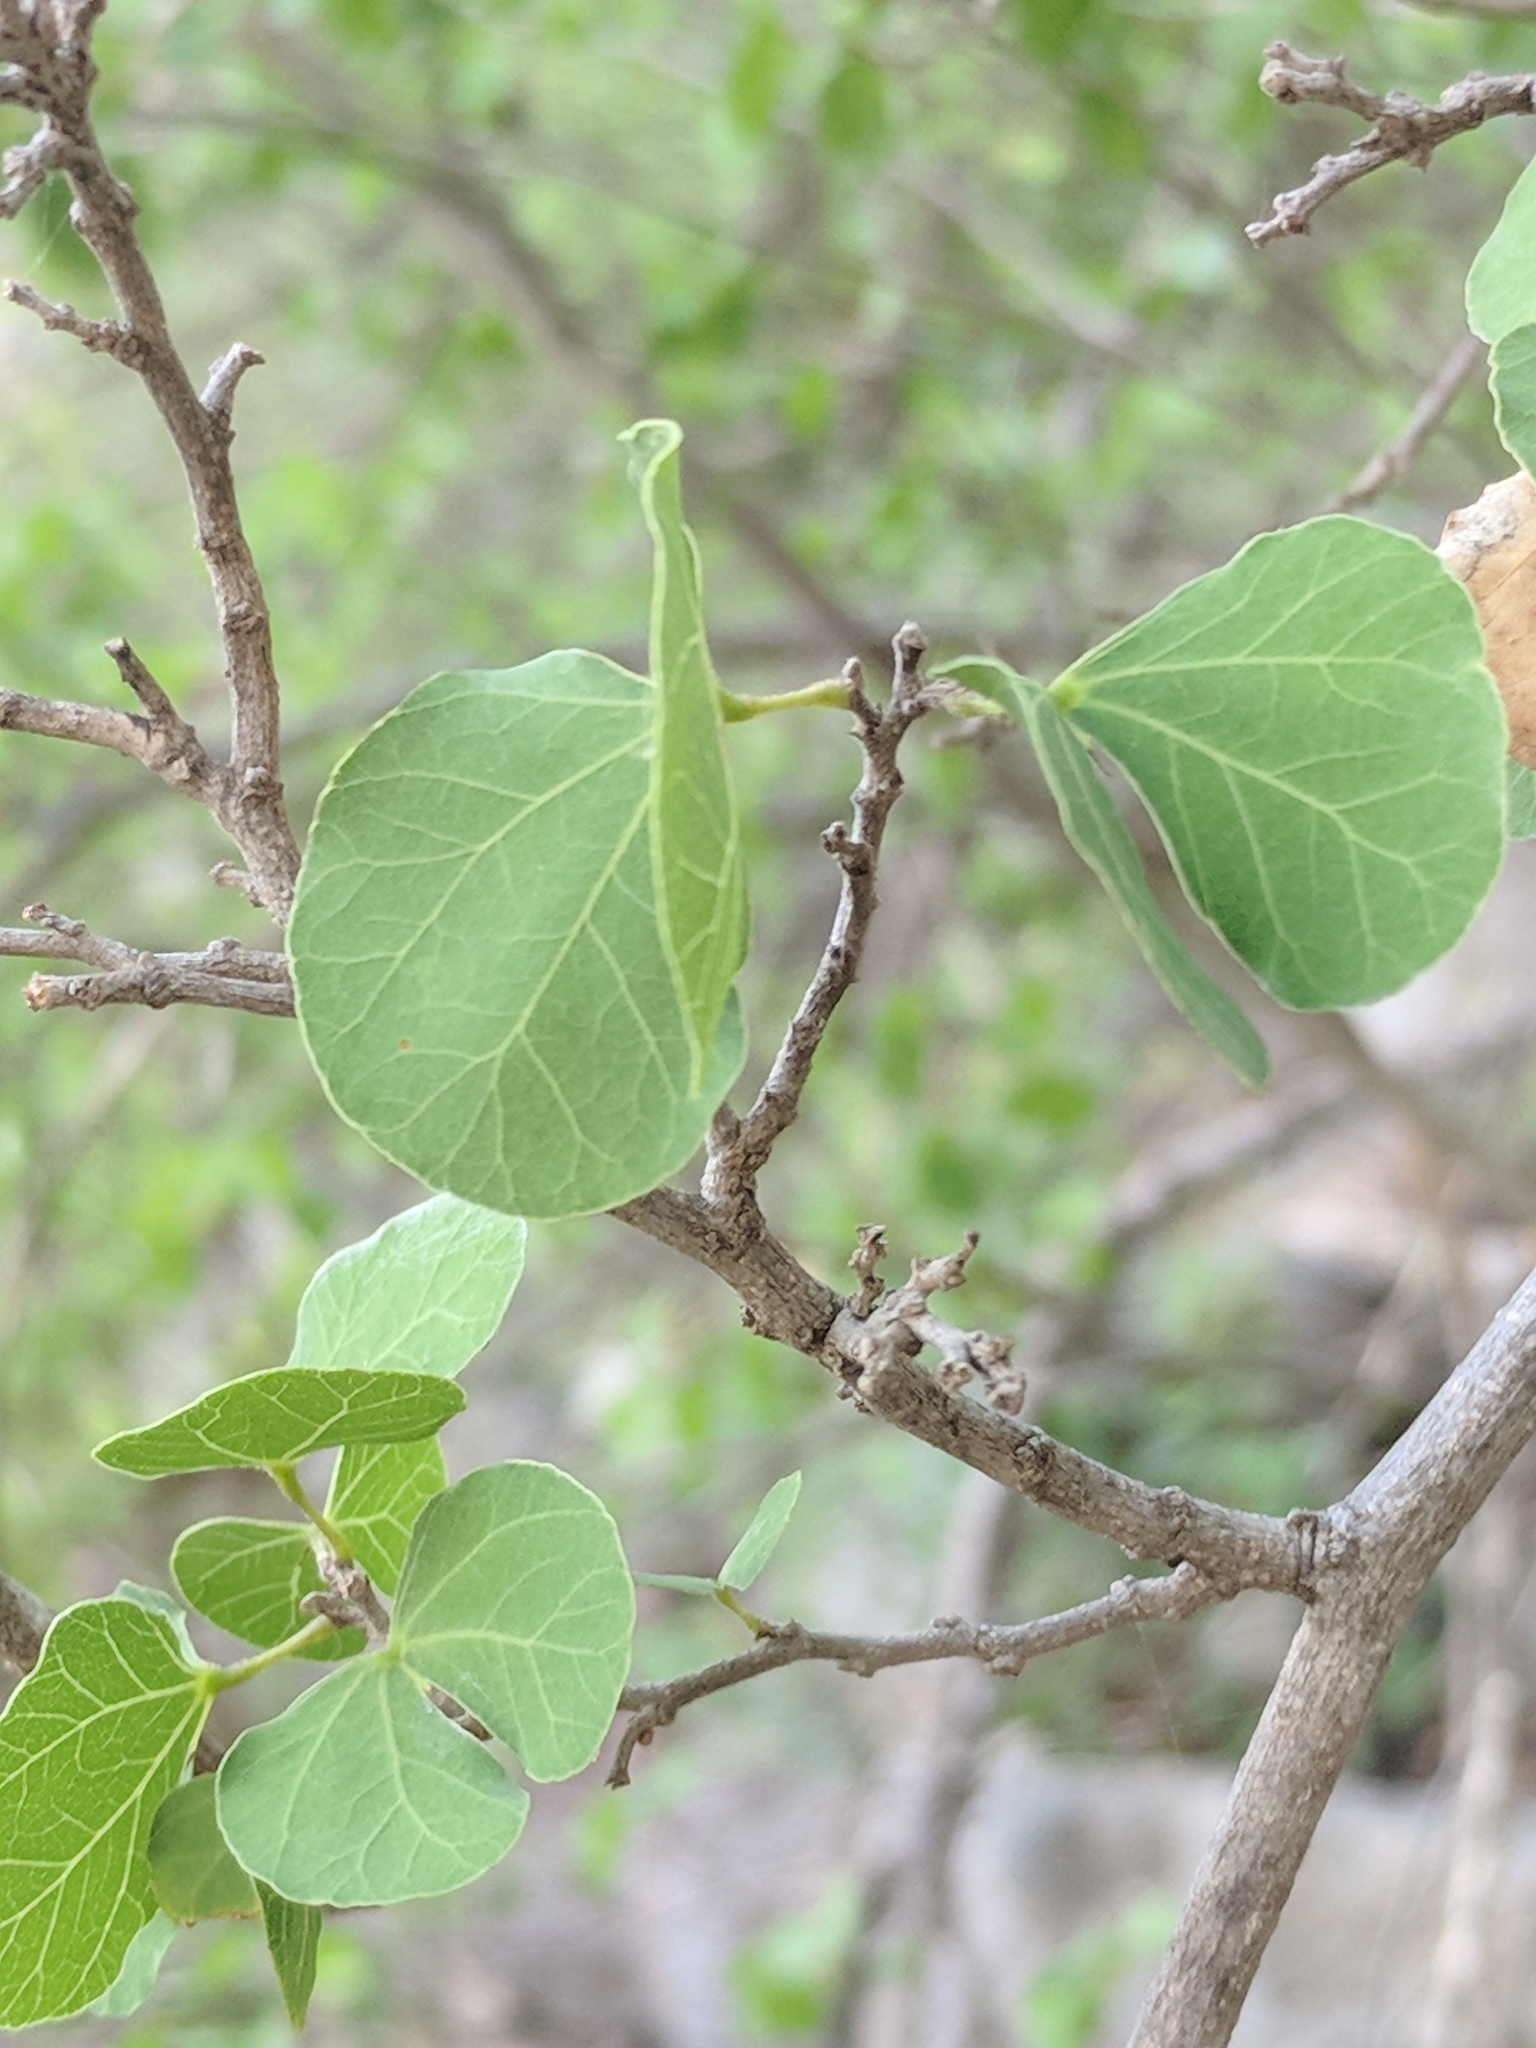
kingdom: Plantae
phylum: Tracheophyta
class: Magnoliopsida
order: Fabales
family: Fabaceae
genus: Bauhinia
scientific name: Bauhinia lunarioides
